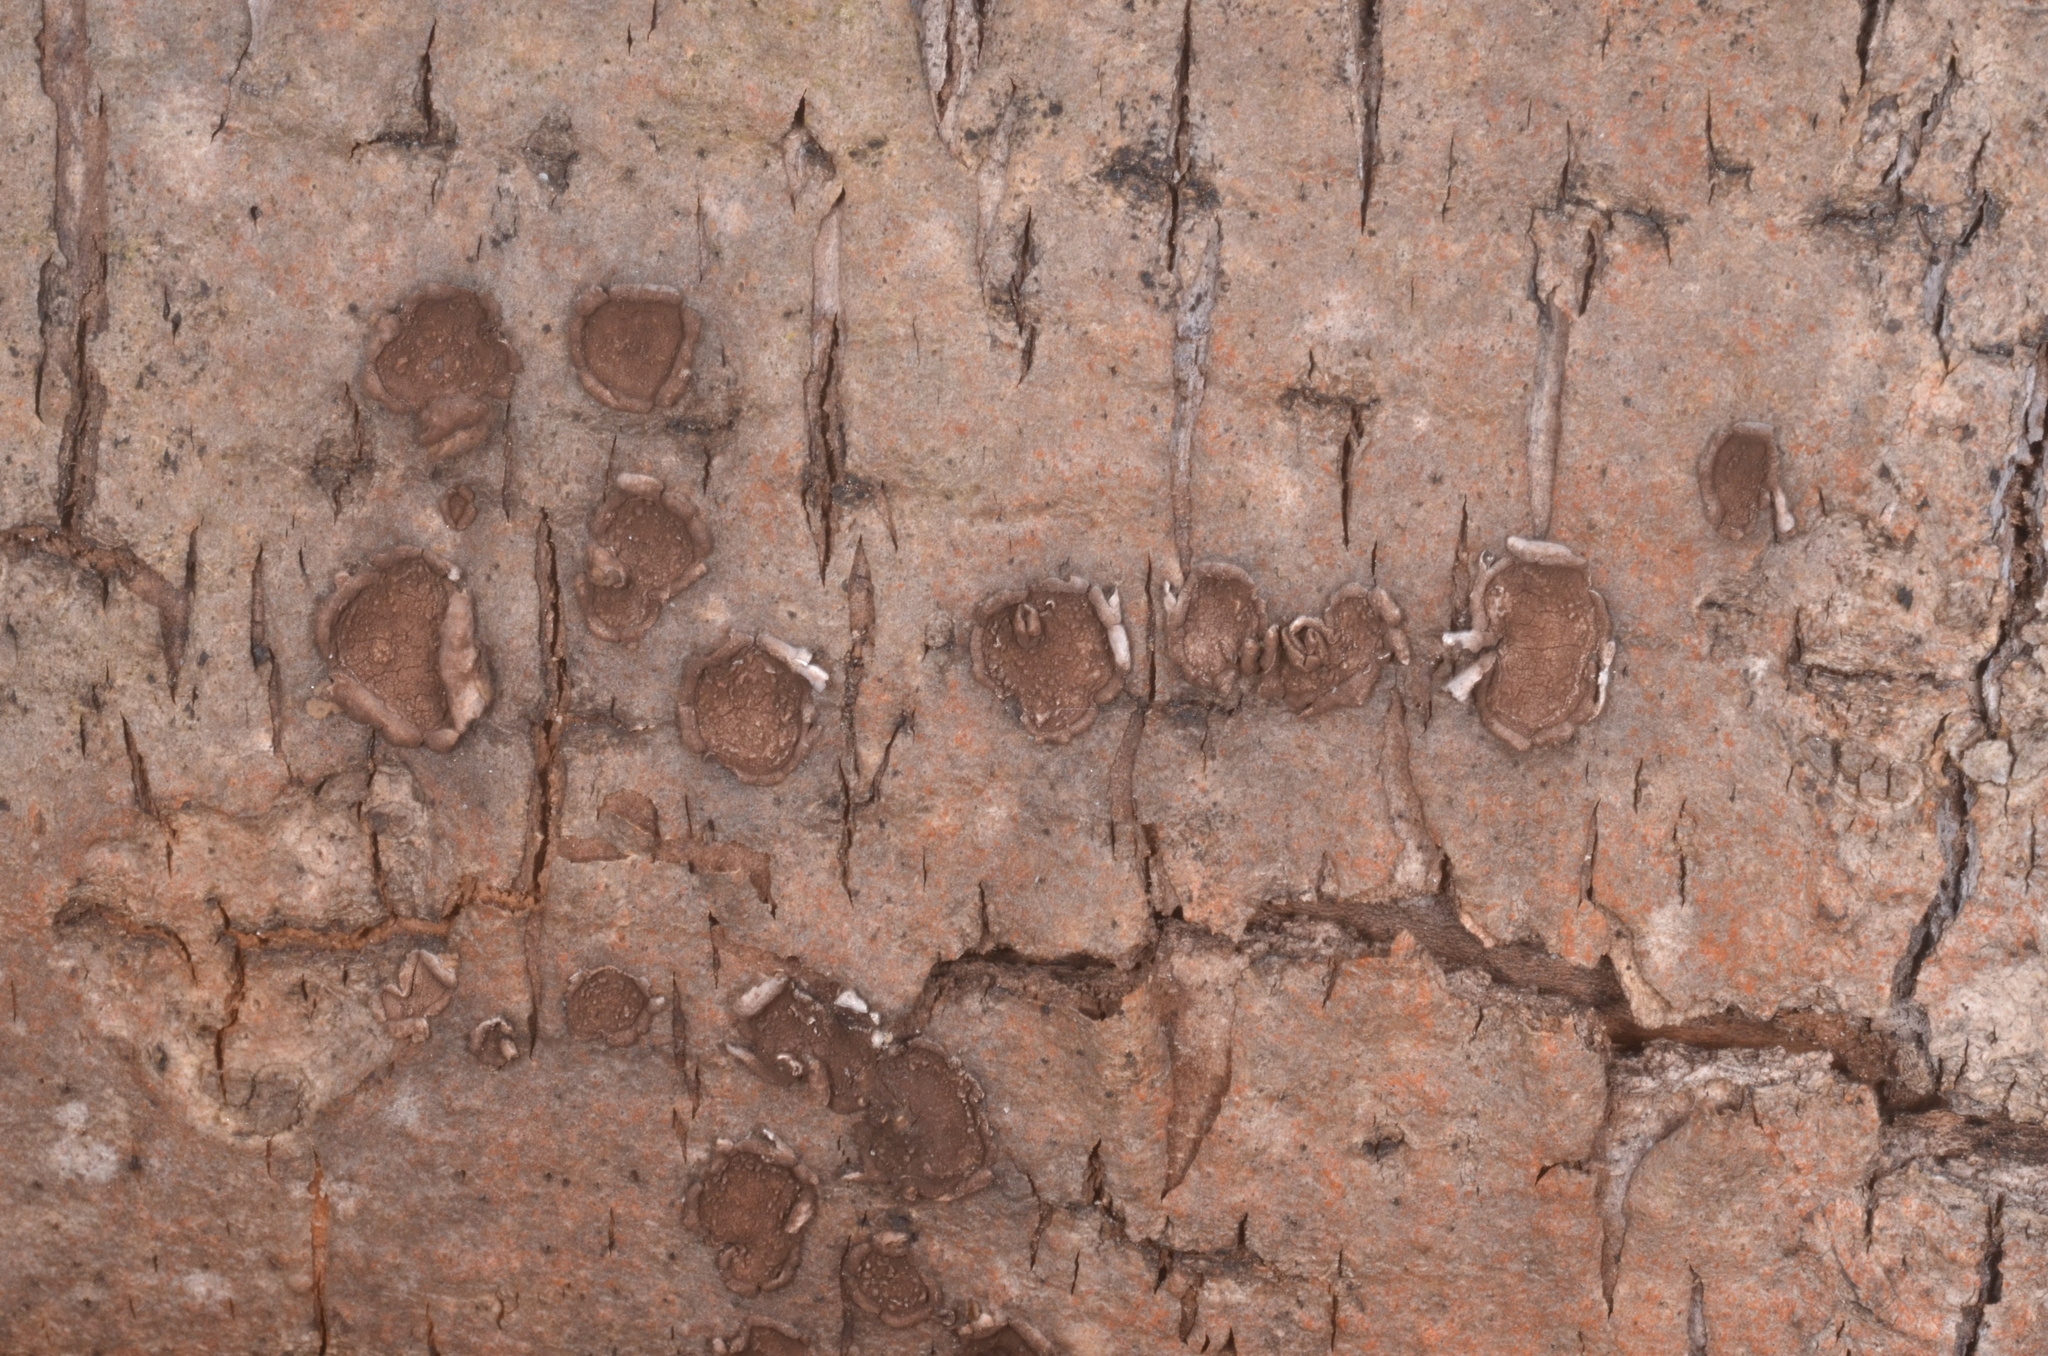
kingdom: Fungi
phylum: Ascomycota
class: Sordariomycetes
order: Xylariales
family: Hypoxylaceae
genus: Hypoxylon
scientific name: Hypoxylon cercidicola
